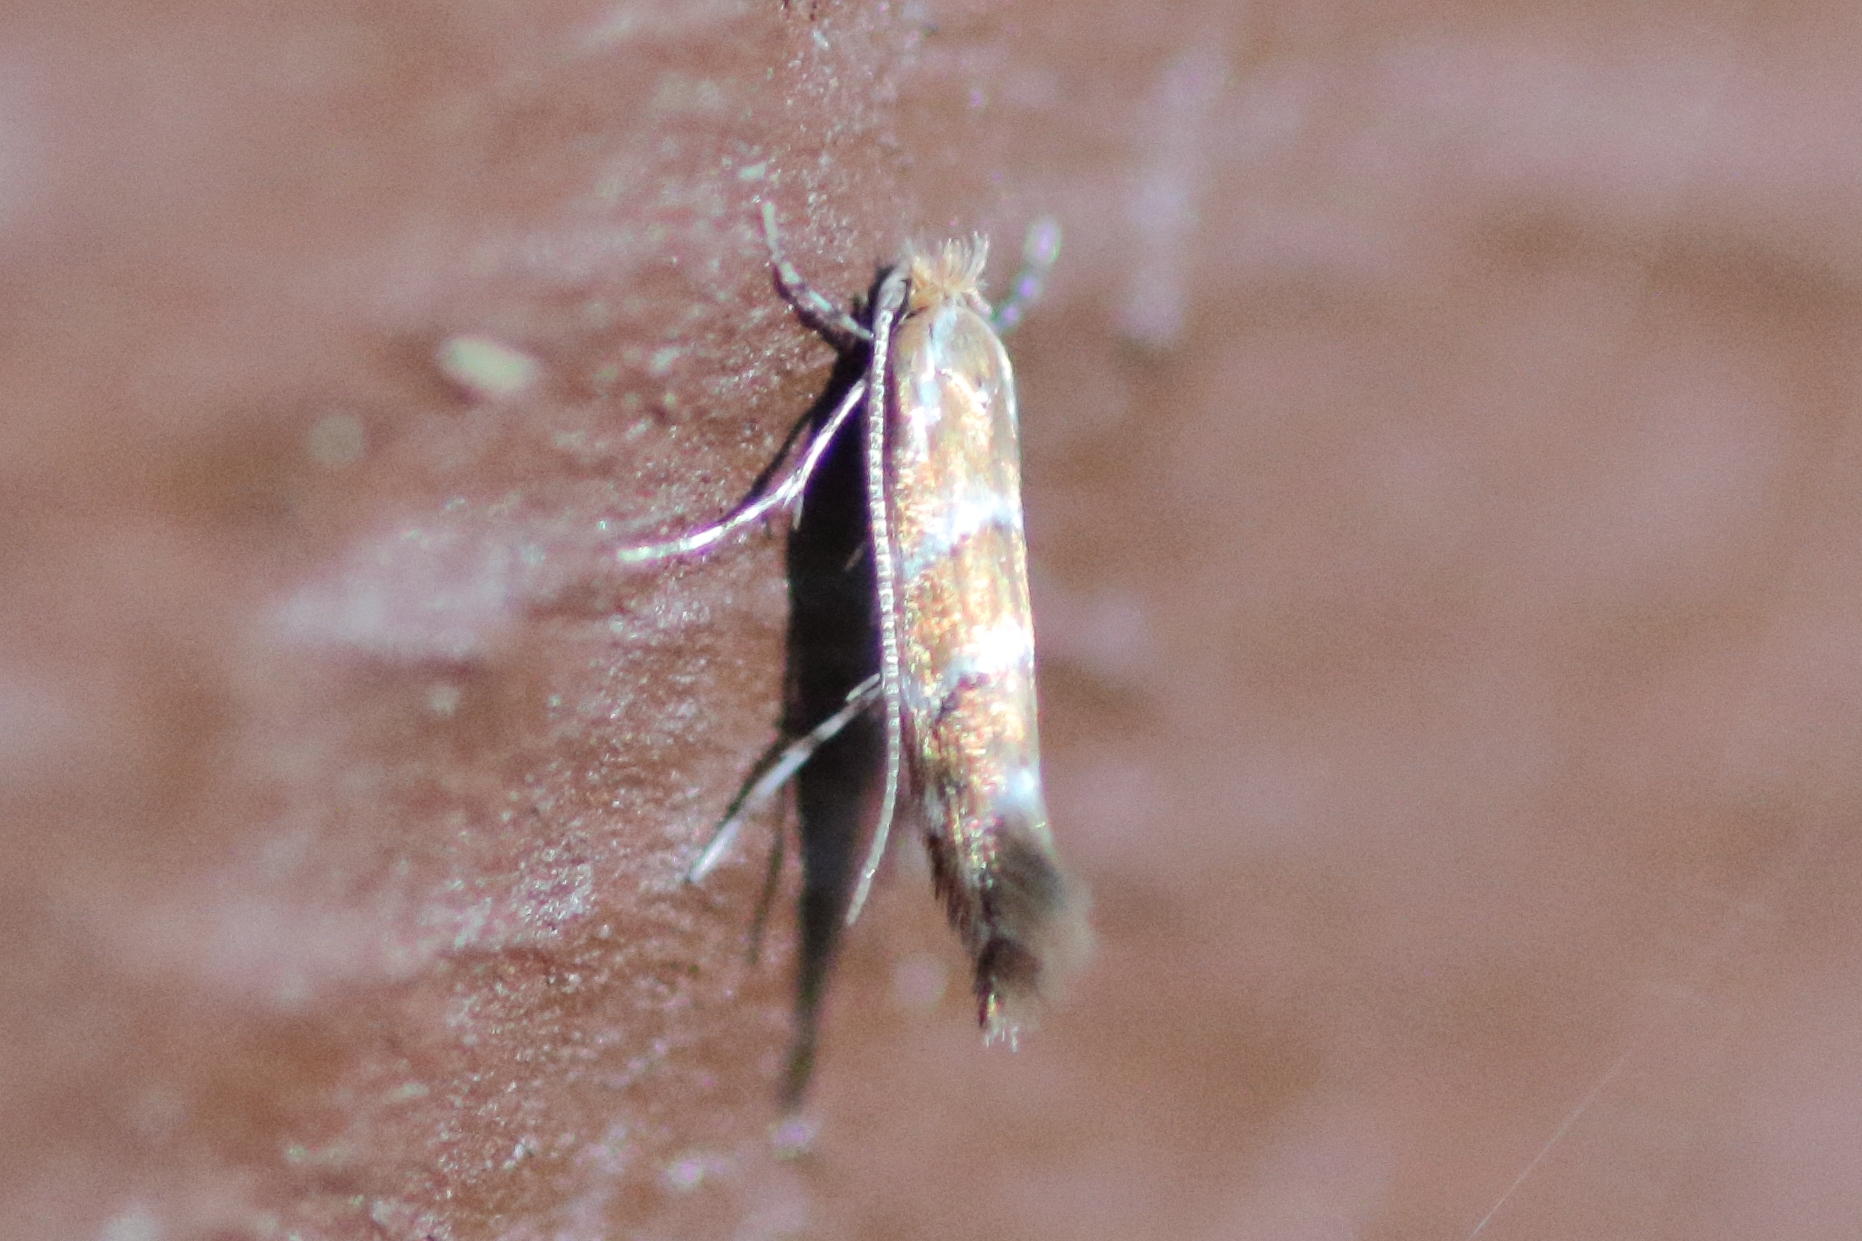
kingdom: Animalia
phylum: Arthropoda
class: Insecta
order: Lepidoptera
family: Gracillariidae
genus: Cameraria
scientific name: Cameraria ohridella
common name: Horse-chestnut leaf-miner
